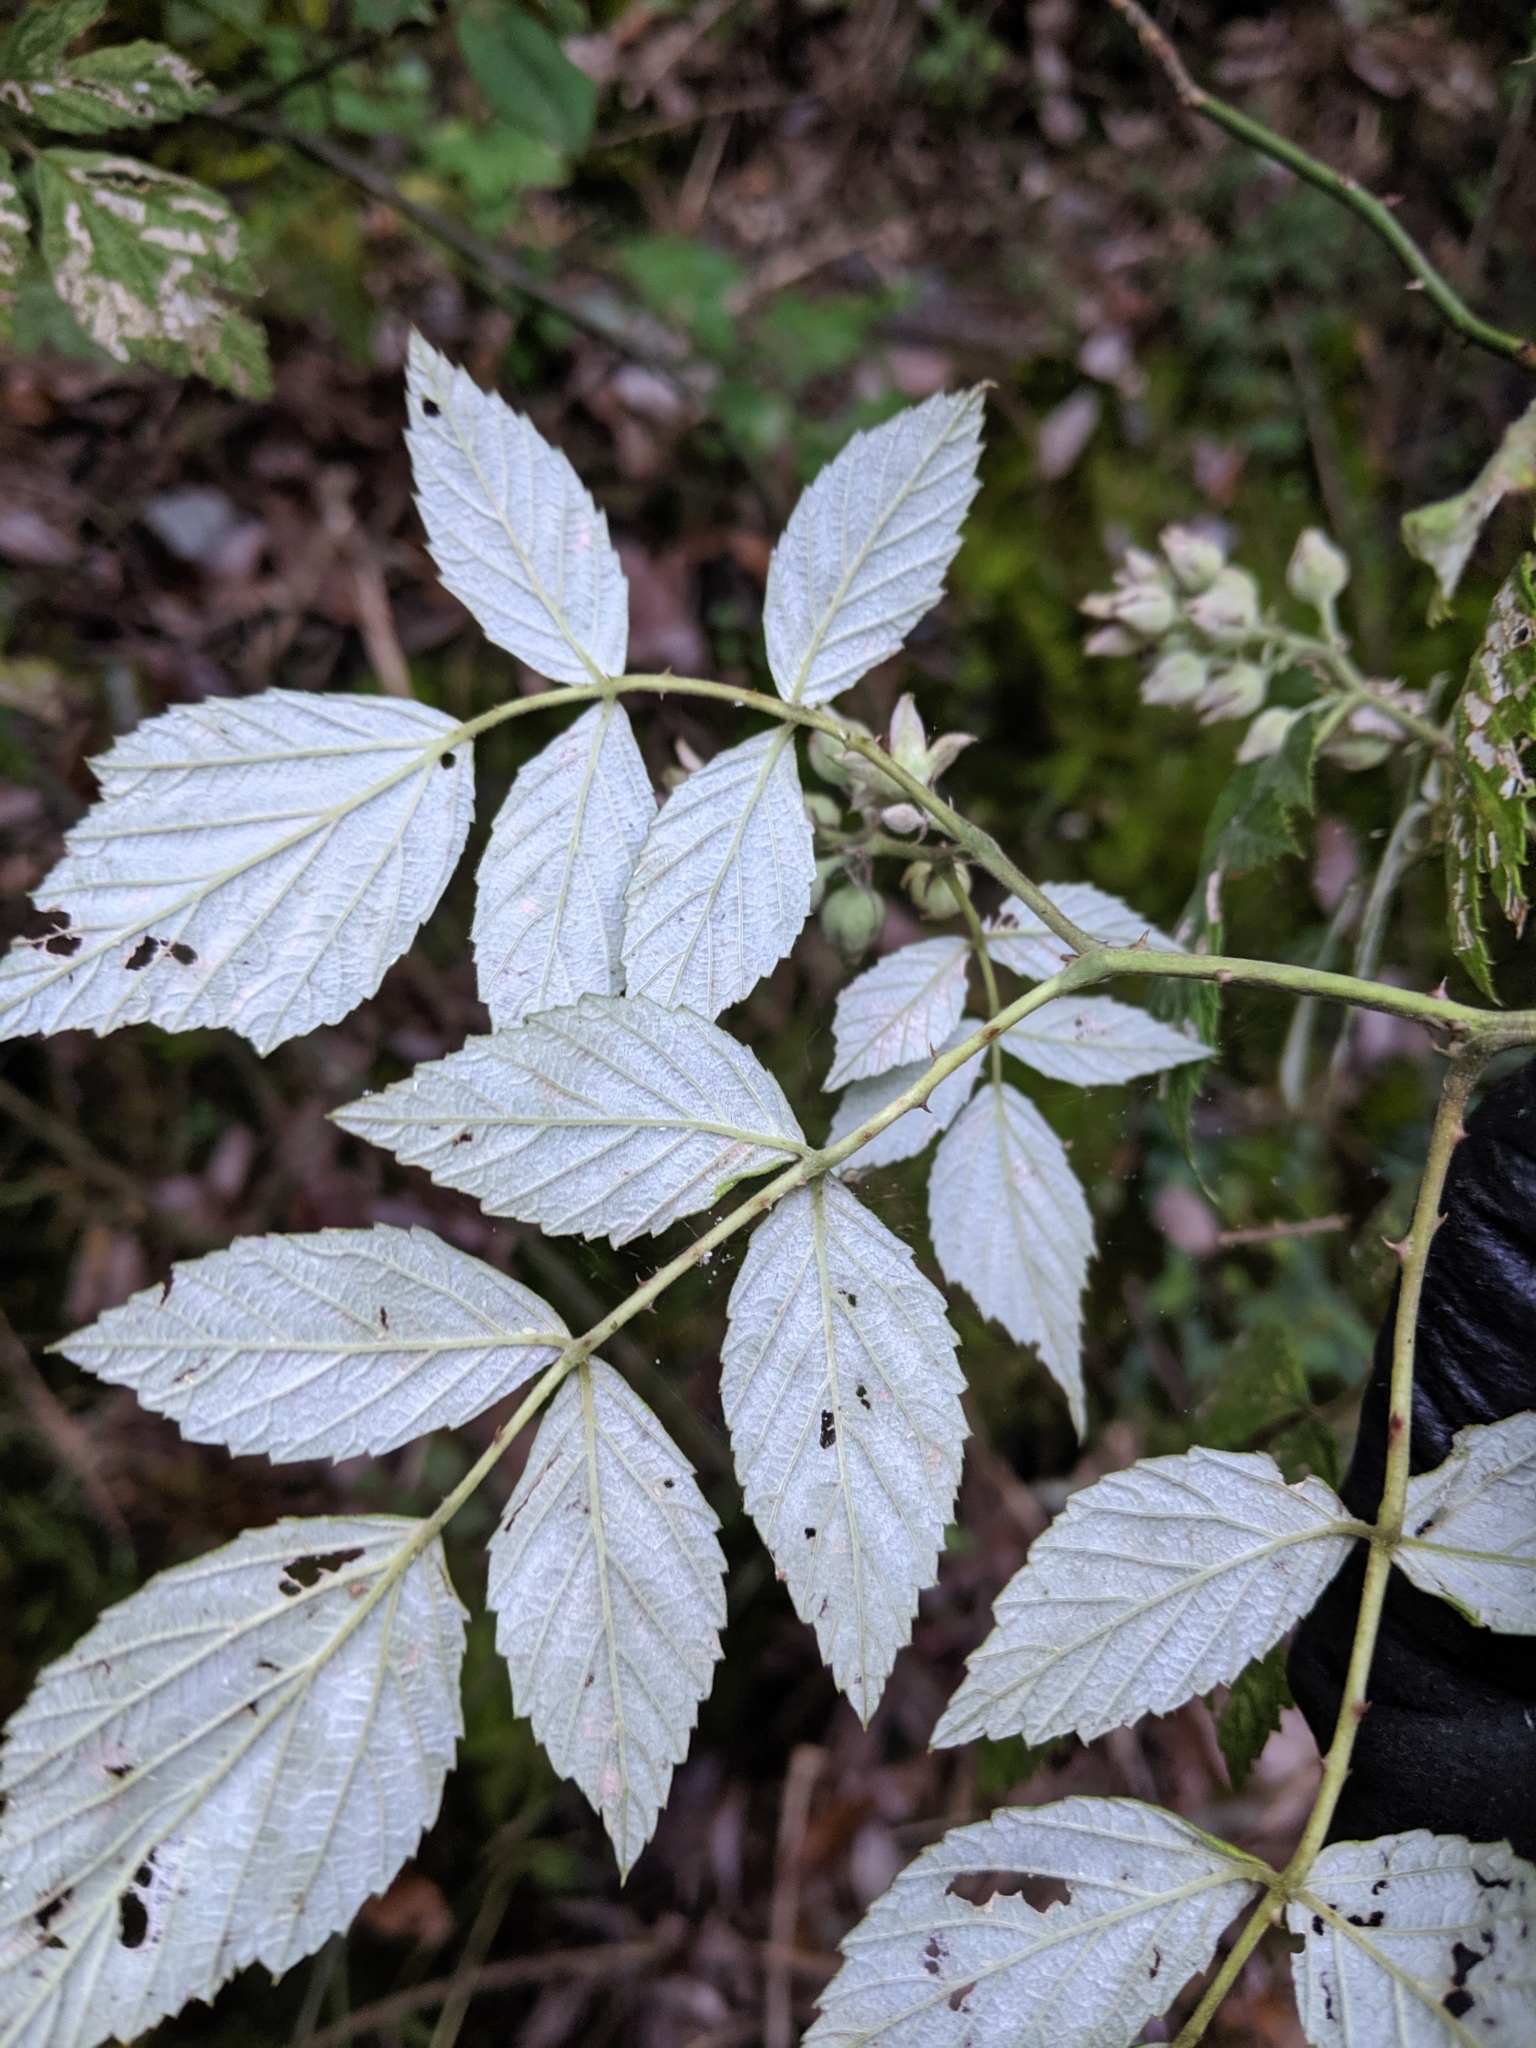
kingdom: Plantae
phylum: Tracheophyta
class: Magnoliopsida
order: Rosales
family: Rosaceae
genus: Rubus
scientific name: Rubus niveus
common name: Snowpeaks raspberry
